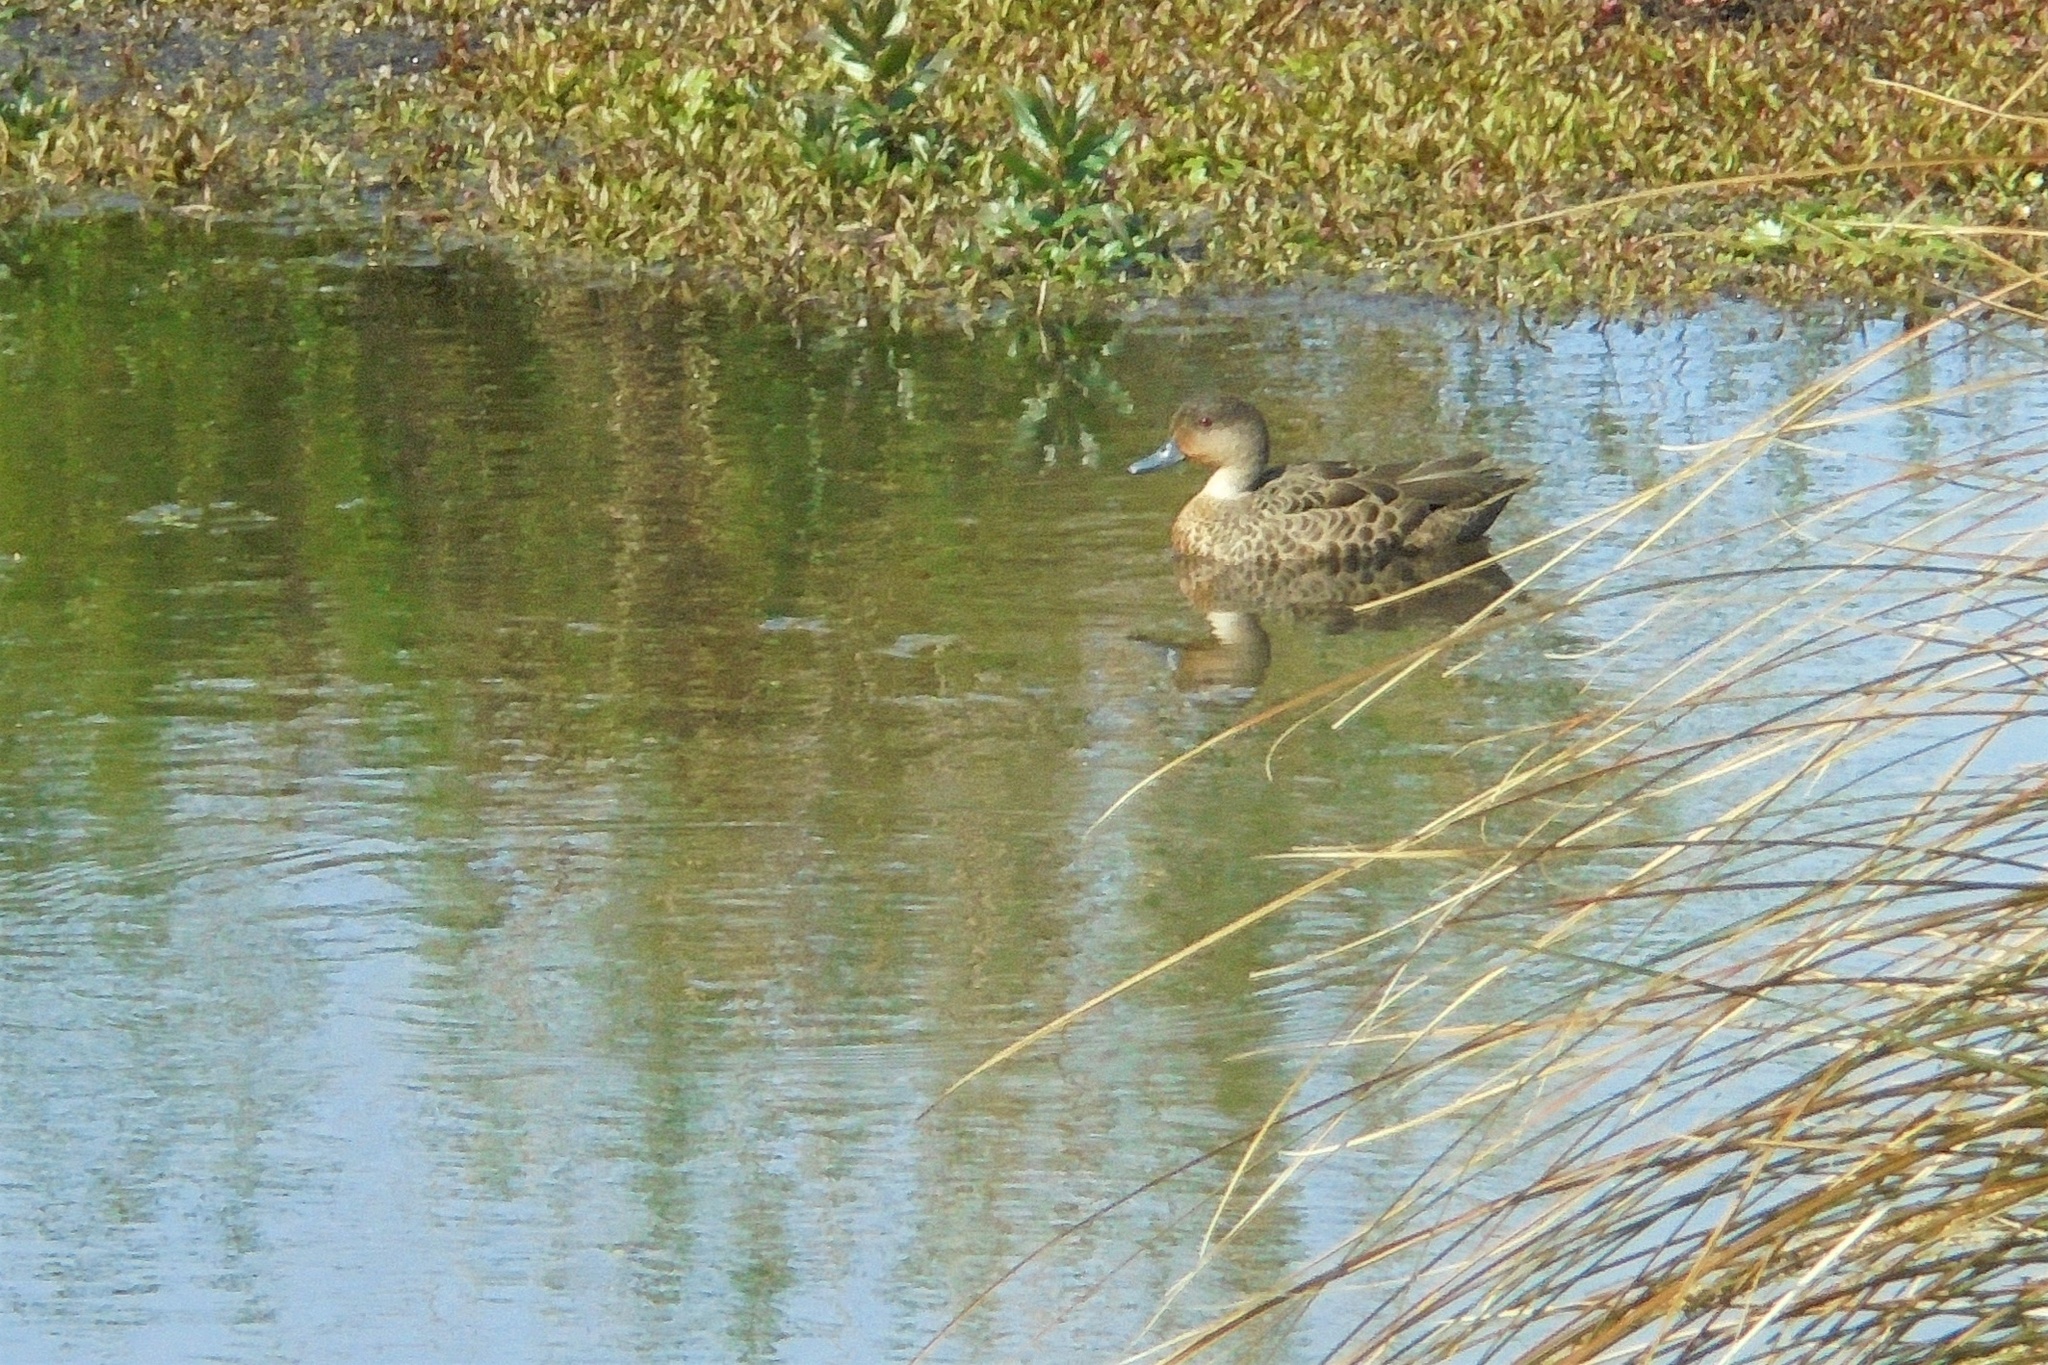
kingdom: Animalia
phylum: Chordata
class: Aves
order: Anseriformes
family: Anatidae
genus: Anas
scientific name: Anas gracilis
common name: Grey teal
